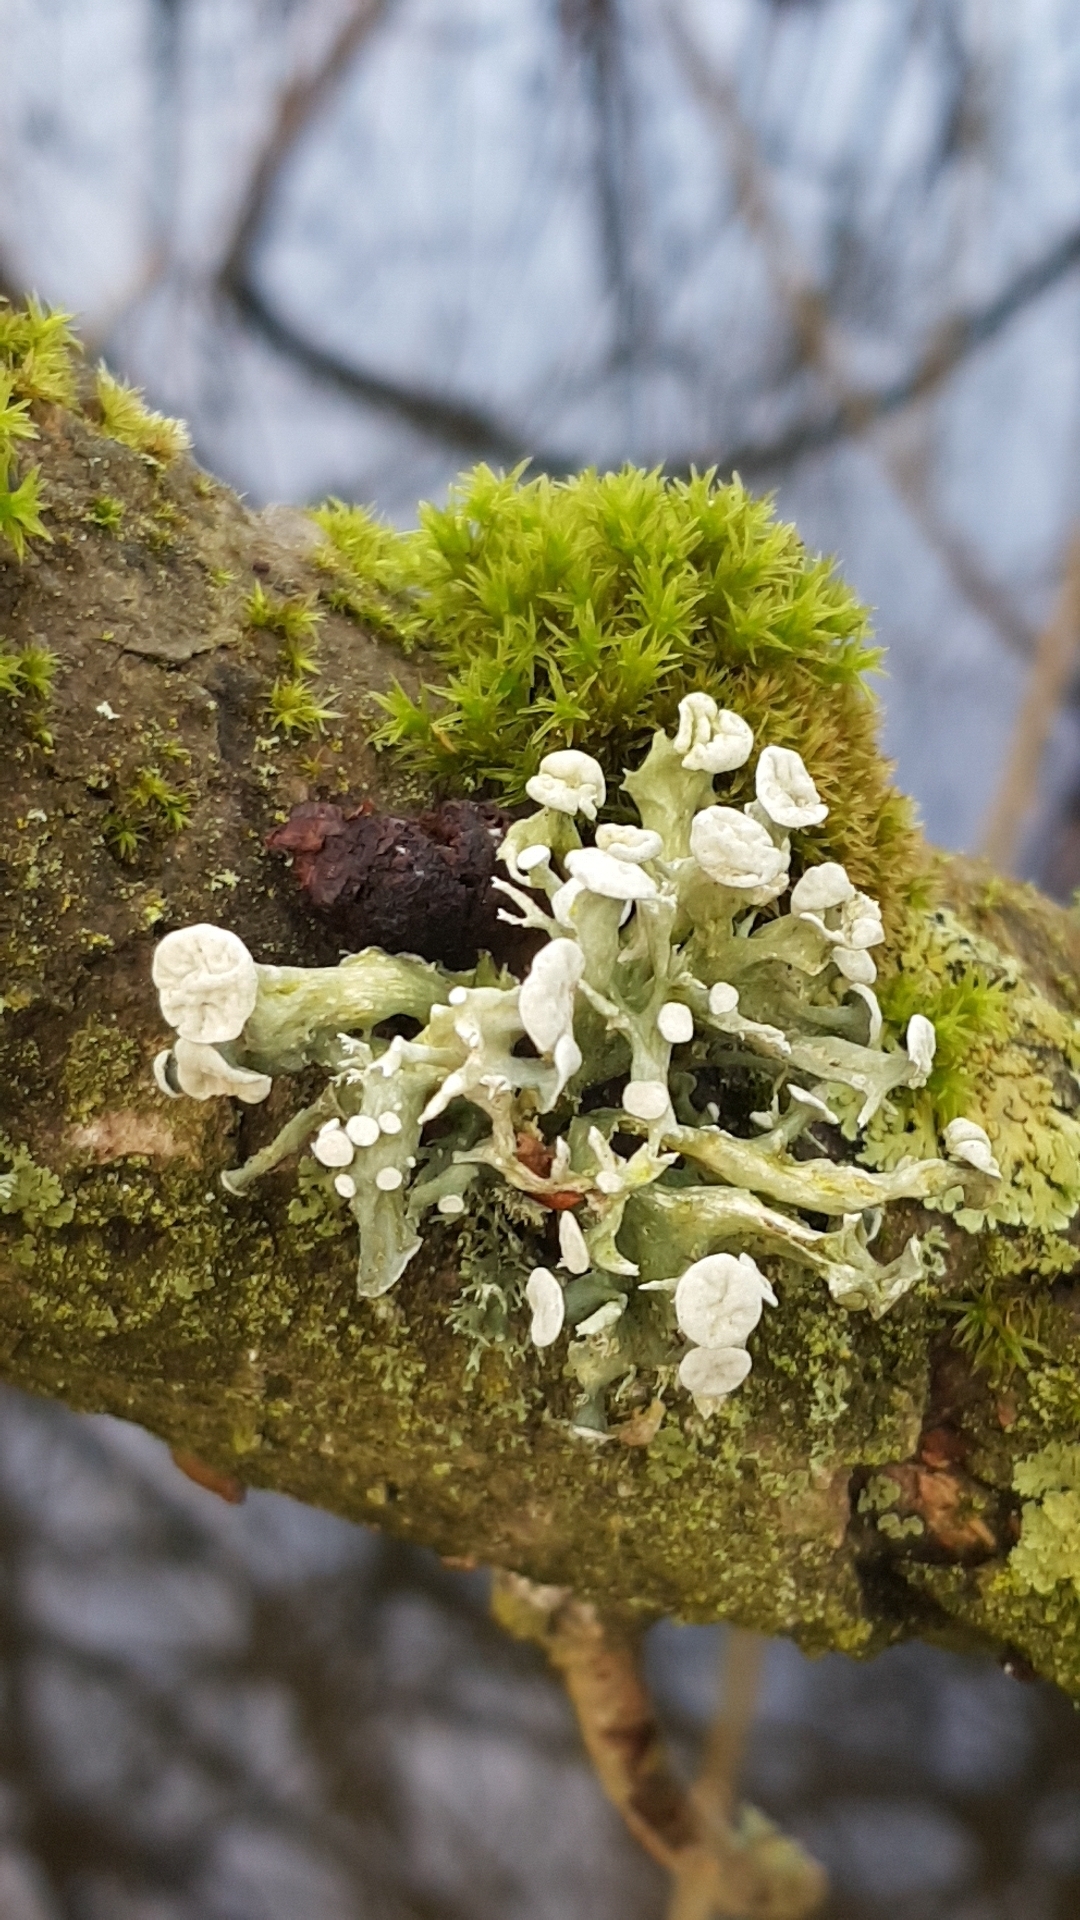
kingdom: Fungi
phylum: Ascomycota
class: Lecanoromycetes
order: Lecanorales
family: Ramalinaceae
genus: Ramalina
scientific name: Ramalina fastigiata
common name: Dotted ribbon lichen
